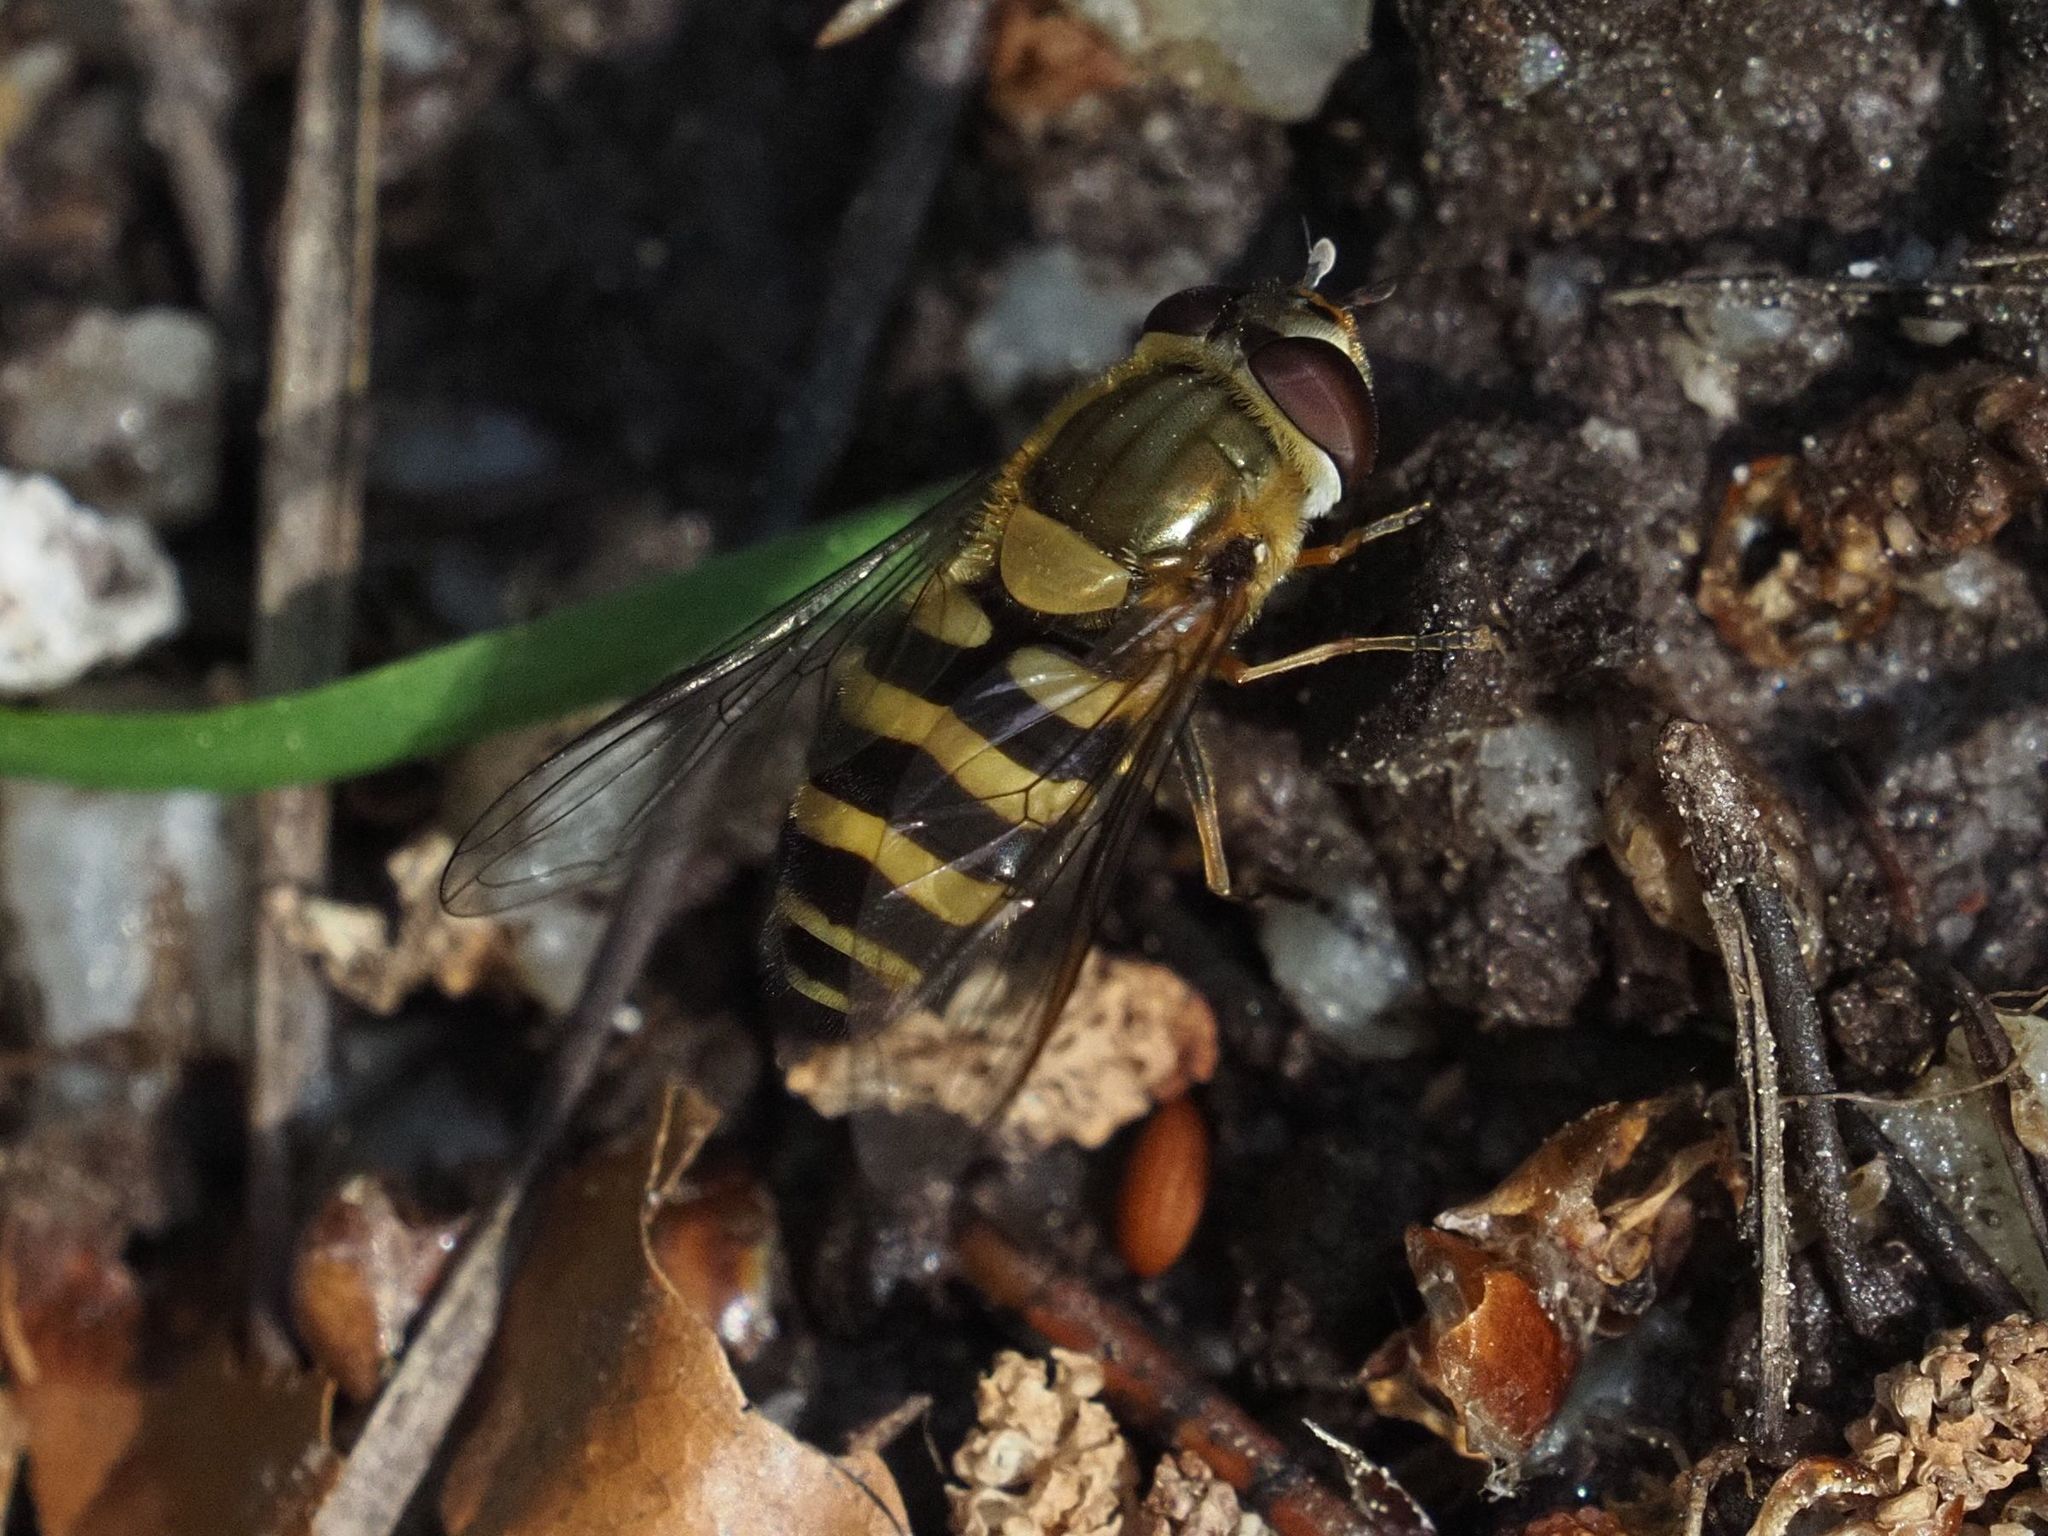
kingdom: Animalia
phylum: Arthropoda
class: Insecta
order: Diptera
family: Syrphidae
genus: Syrphus
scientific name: Syrphus torvus
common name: Hairy-eyed flower fly
